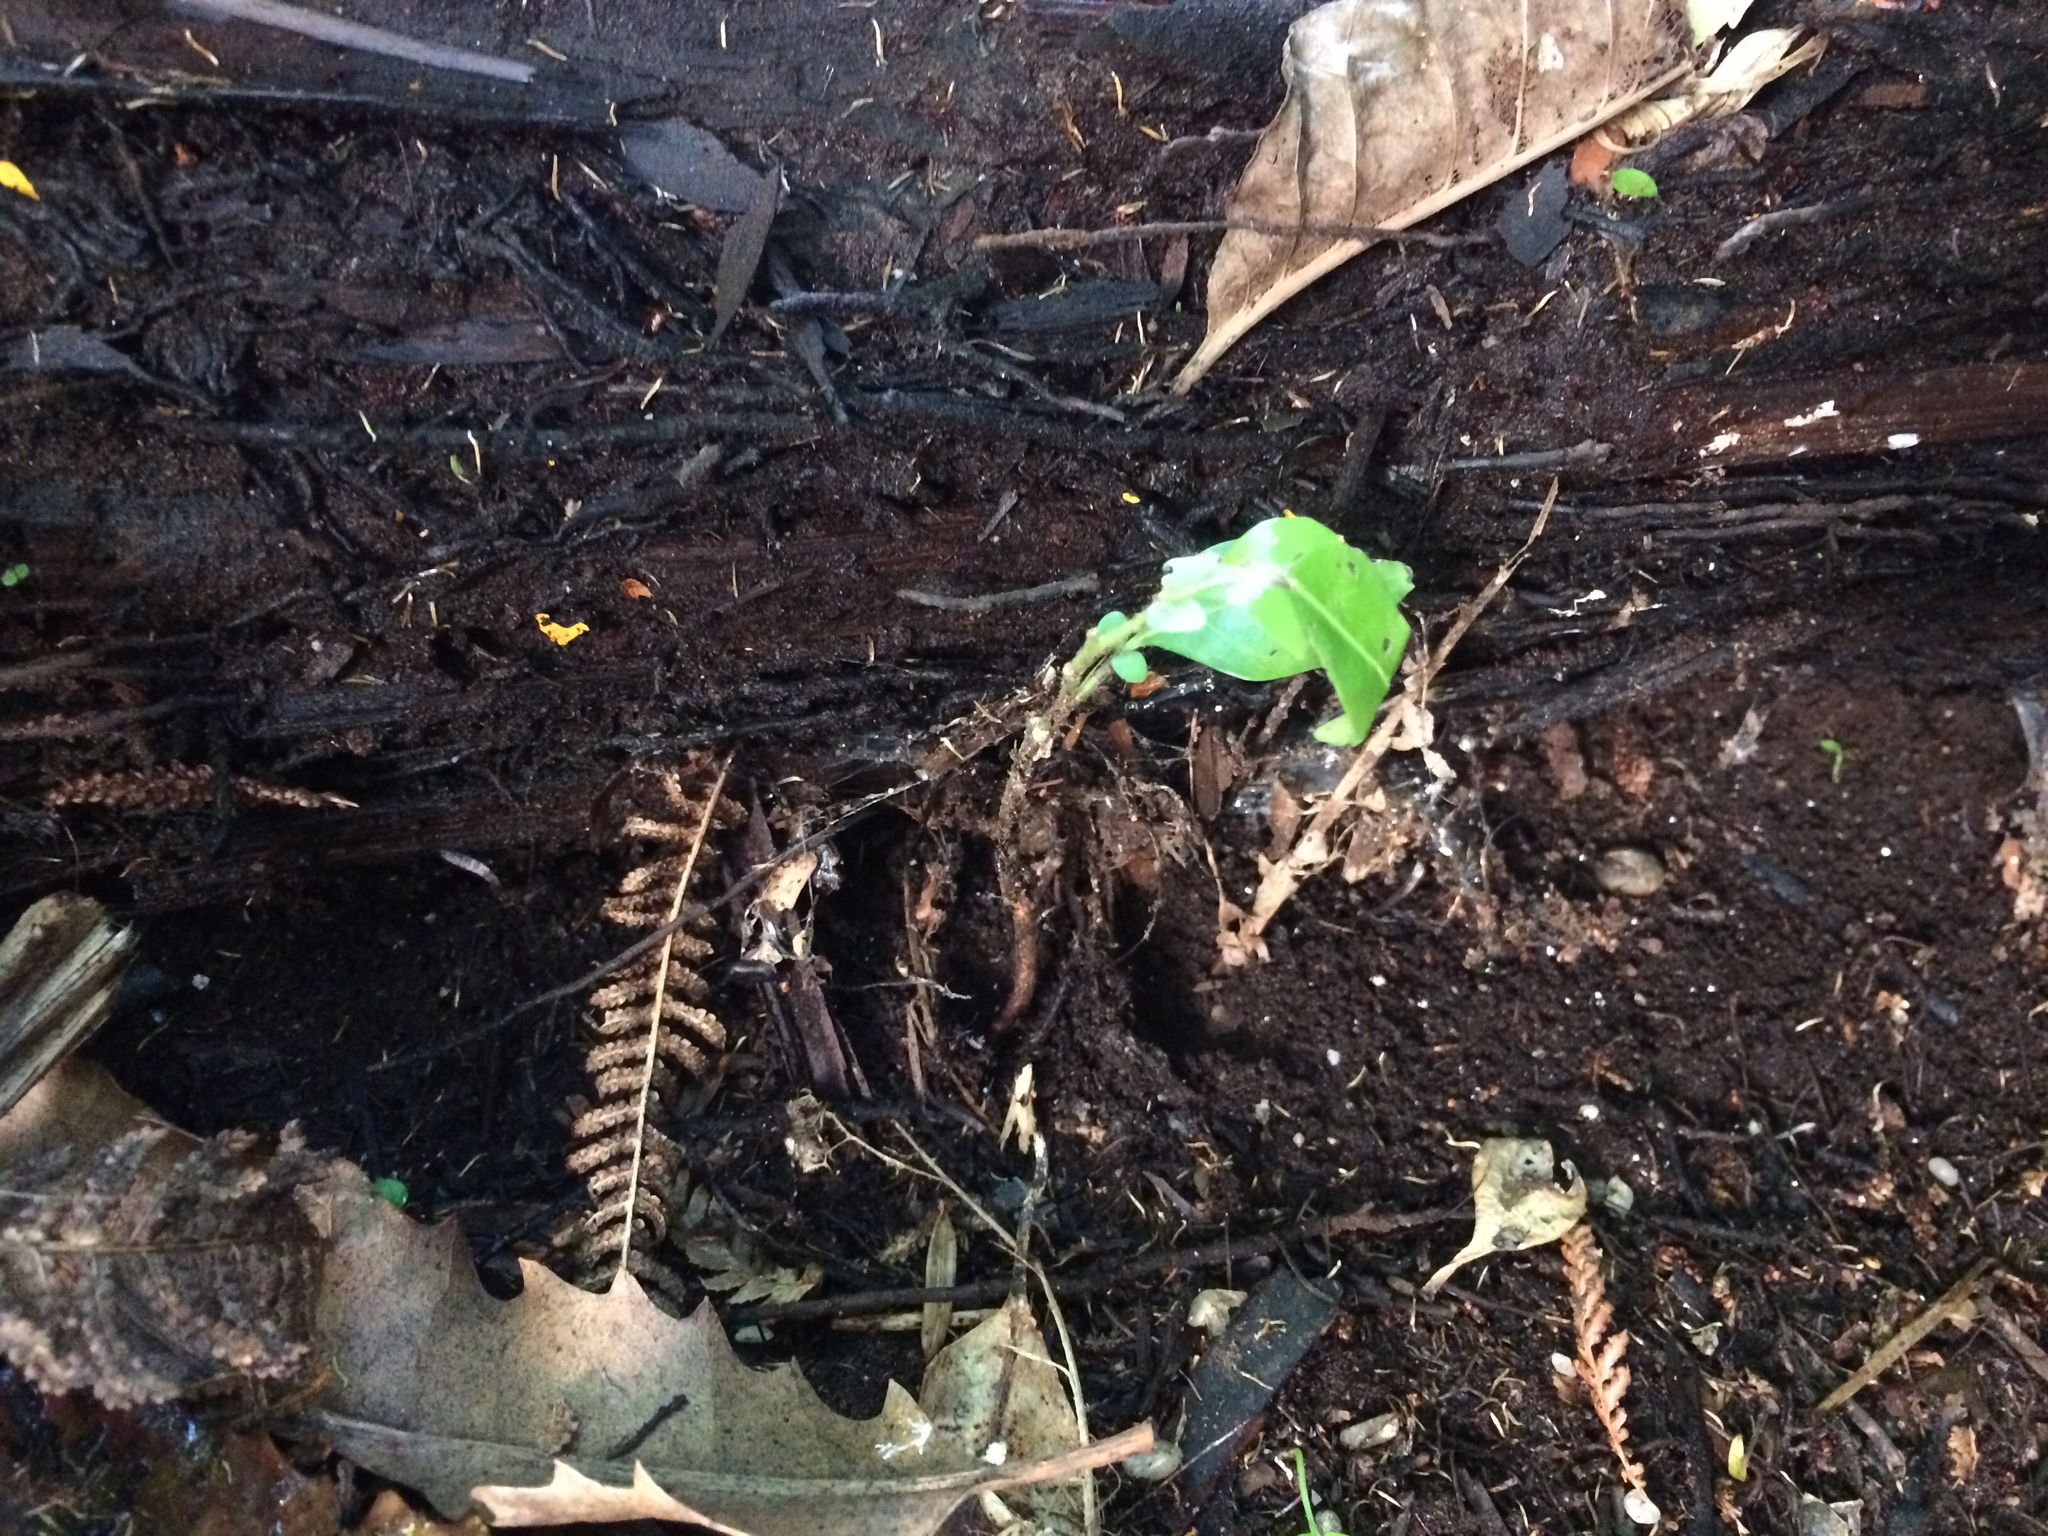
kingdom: Plantae
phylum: Tracheophyta
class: Magnoliopsida
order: Sapindales
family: Meliaceae
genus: Didymocheton
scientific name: Didymocheton spectabilis
